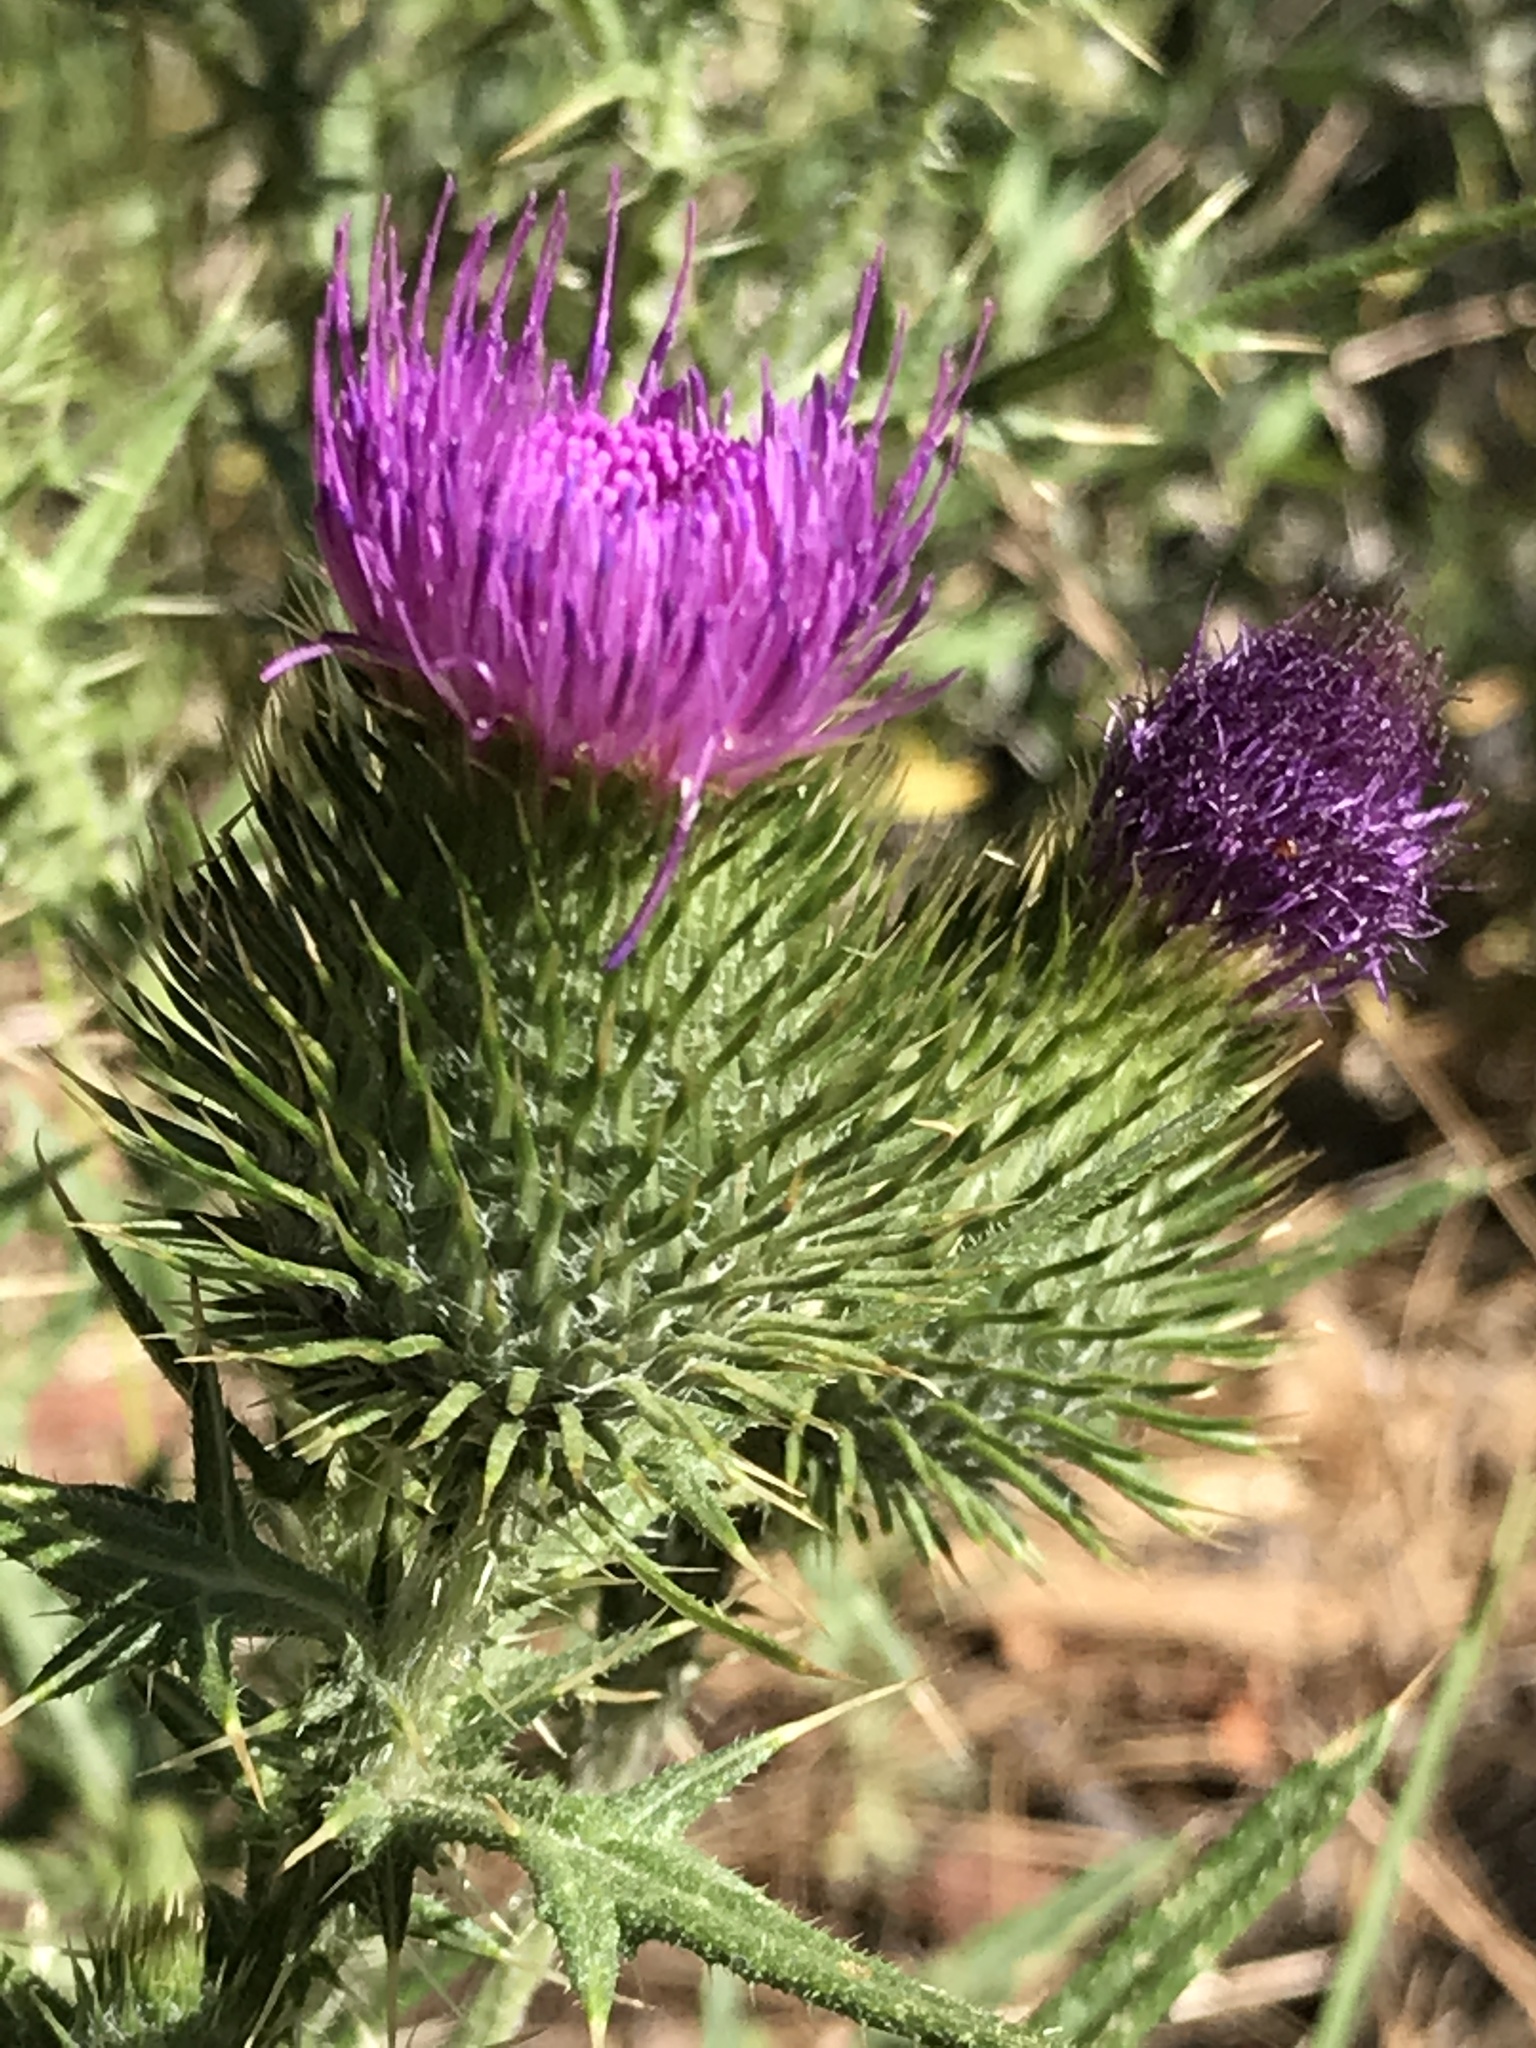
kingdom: Plantae
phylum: Tracheophyta
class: Magnoliopsida
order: Asterales
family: Asteraceae
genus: Cirsium
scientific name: Cirsium vulgare
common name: Bull thistle
